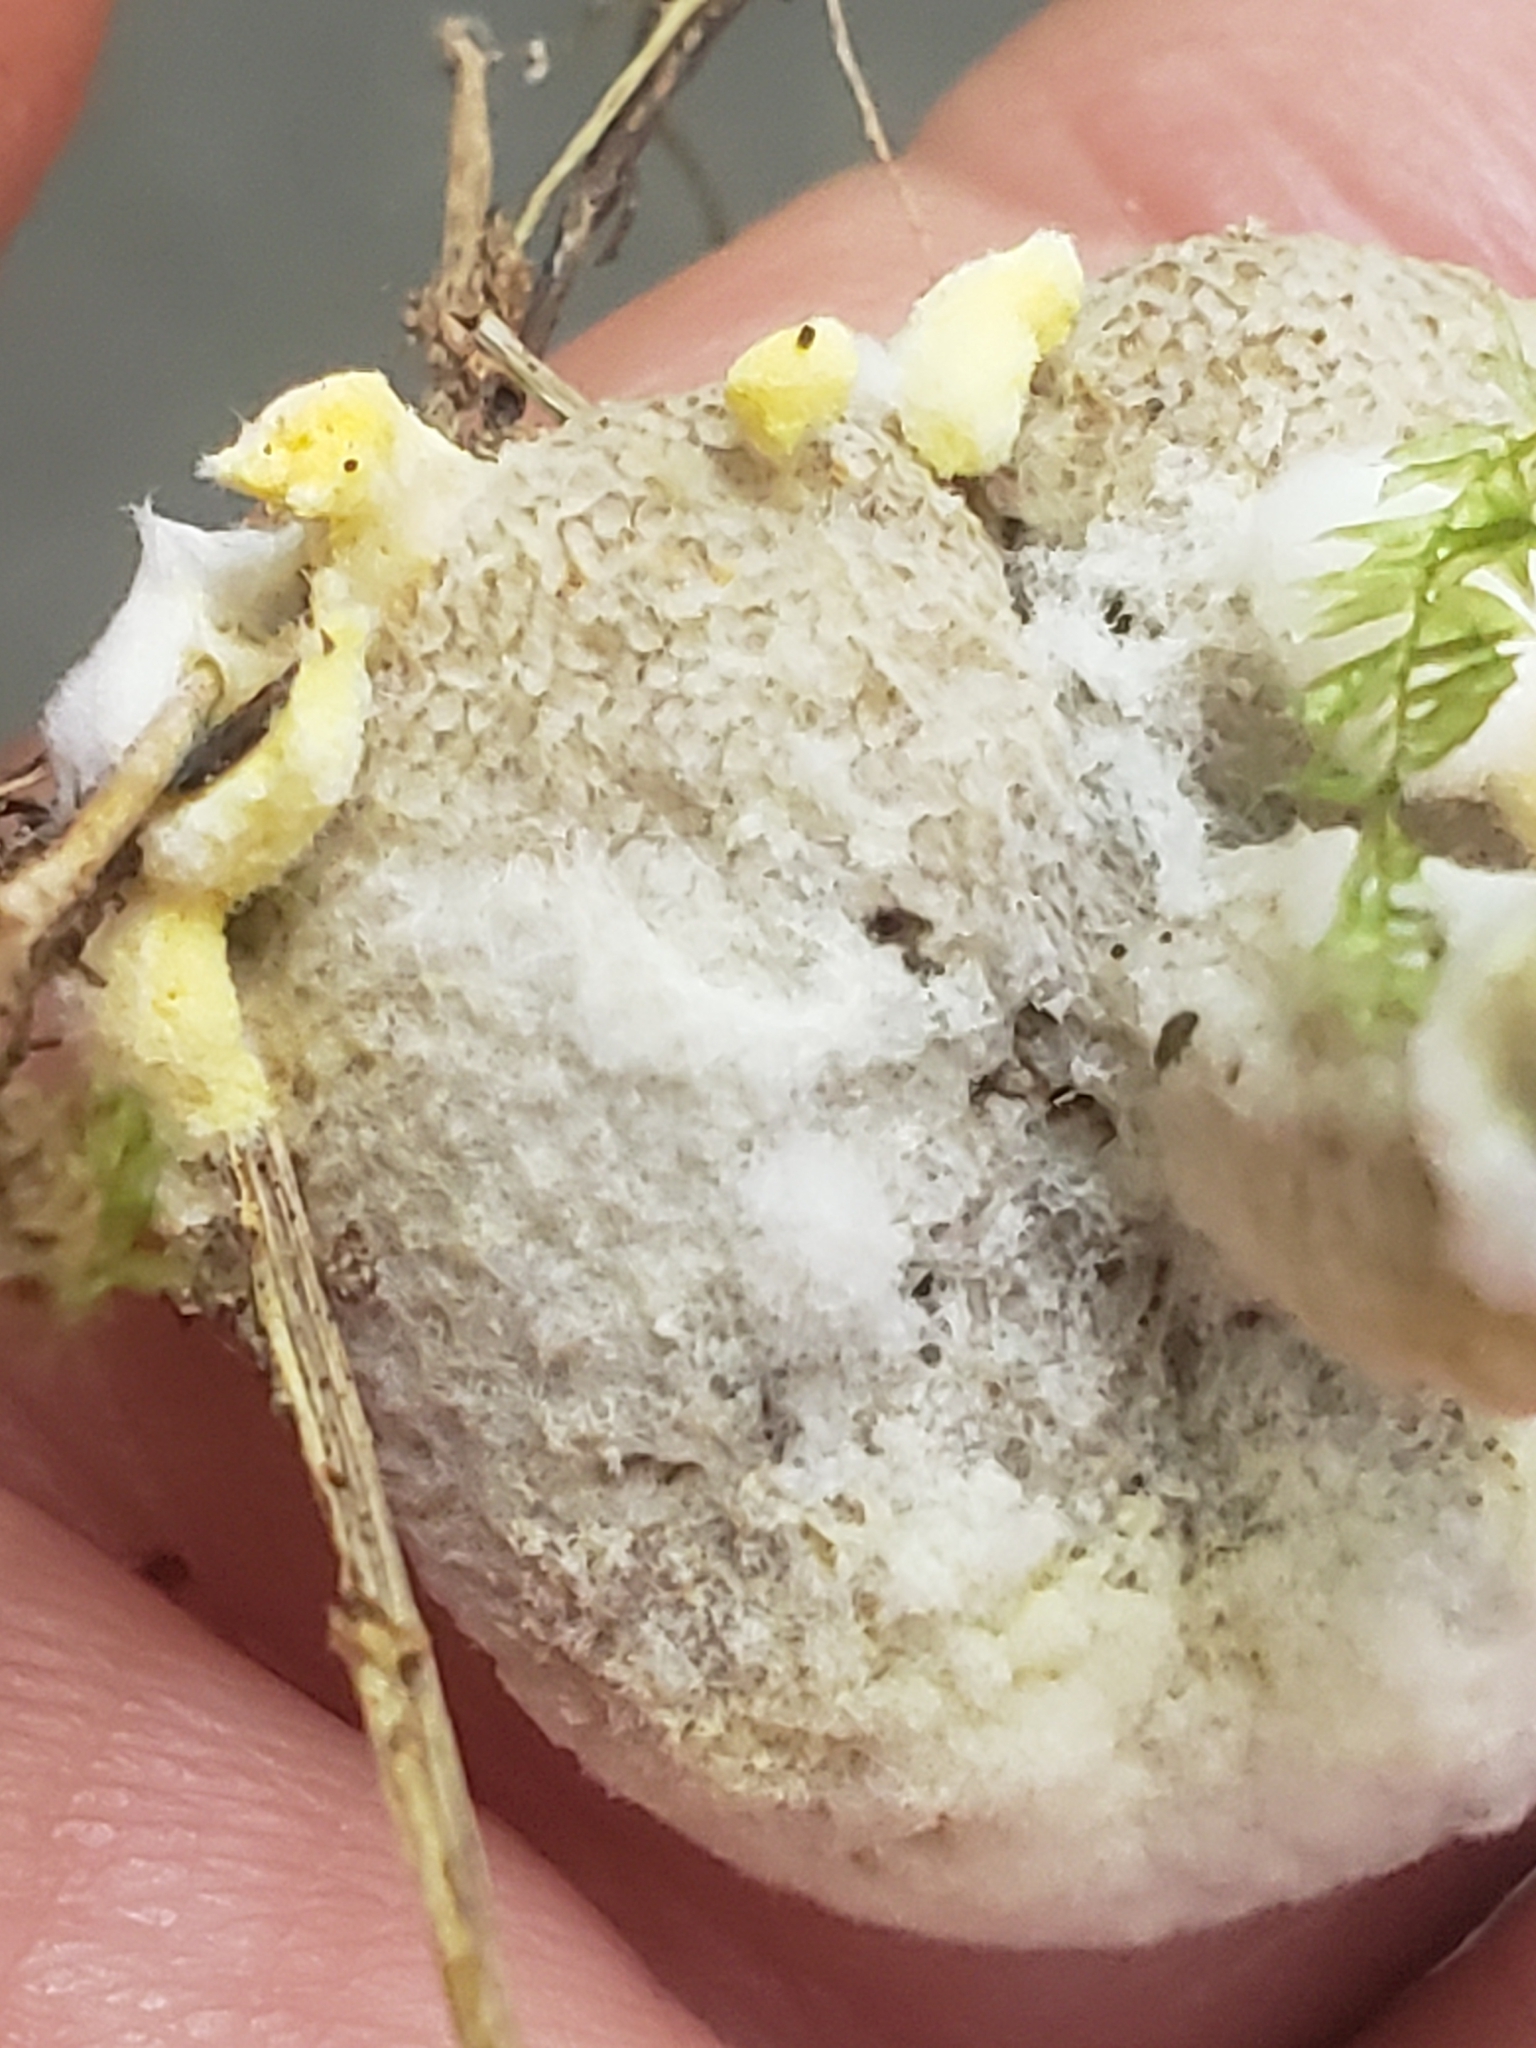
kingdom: Fungi
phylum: Ascomycota
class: Sordariomycetes
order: Hypocreales
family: Hypocreaceae
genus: Hypomyces
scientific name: Hypomyces chrysospermus
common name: Bolete mould
